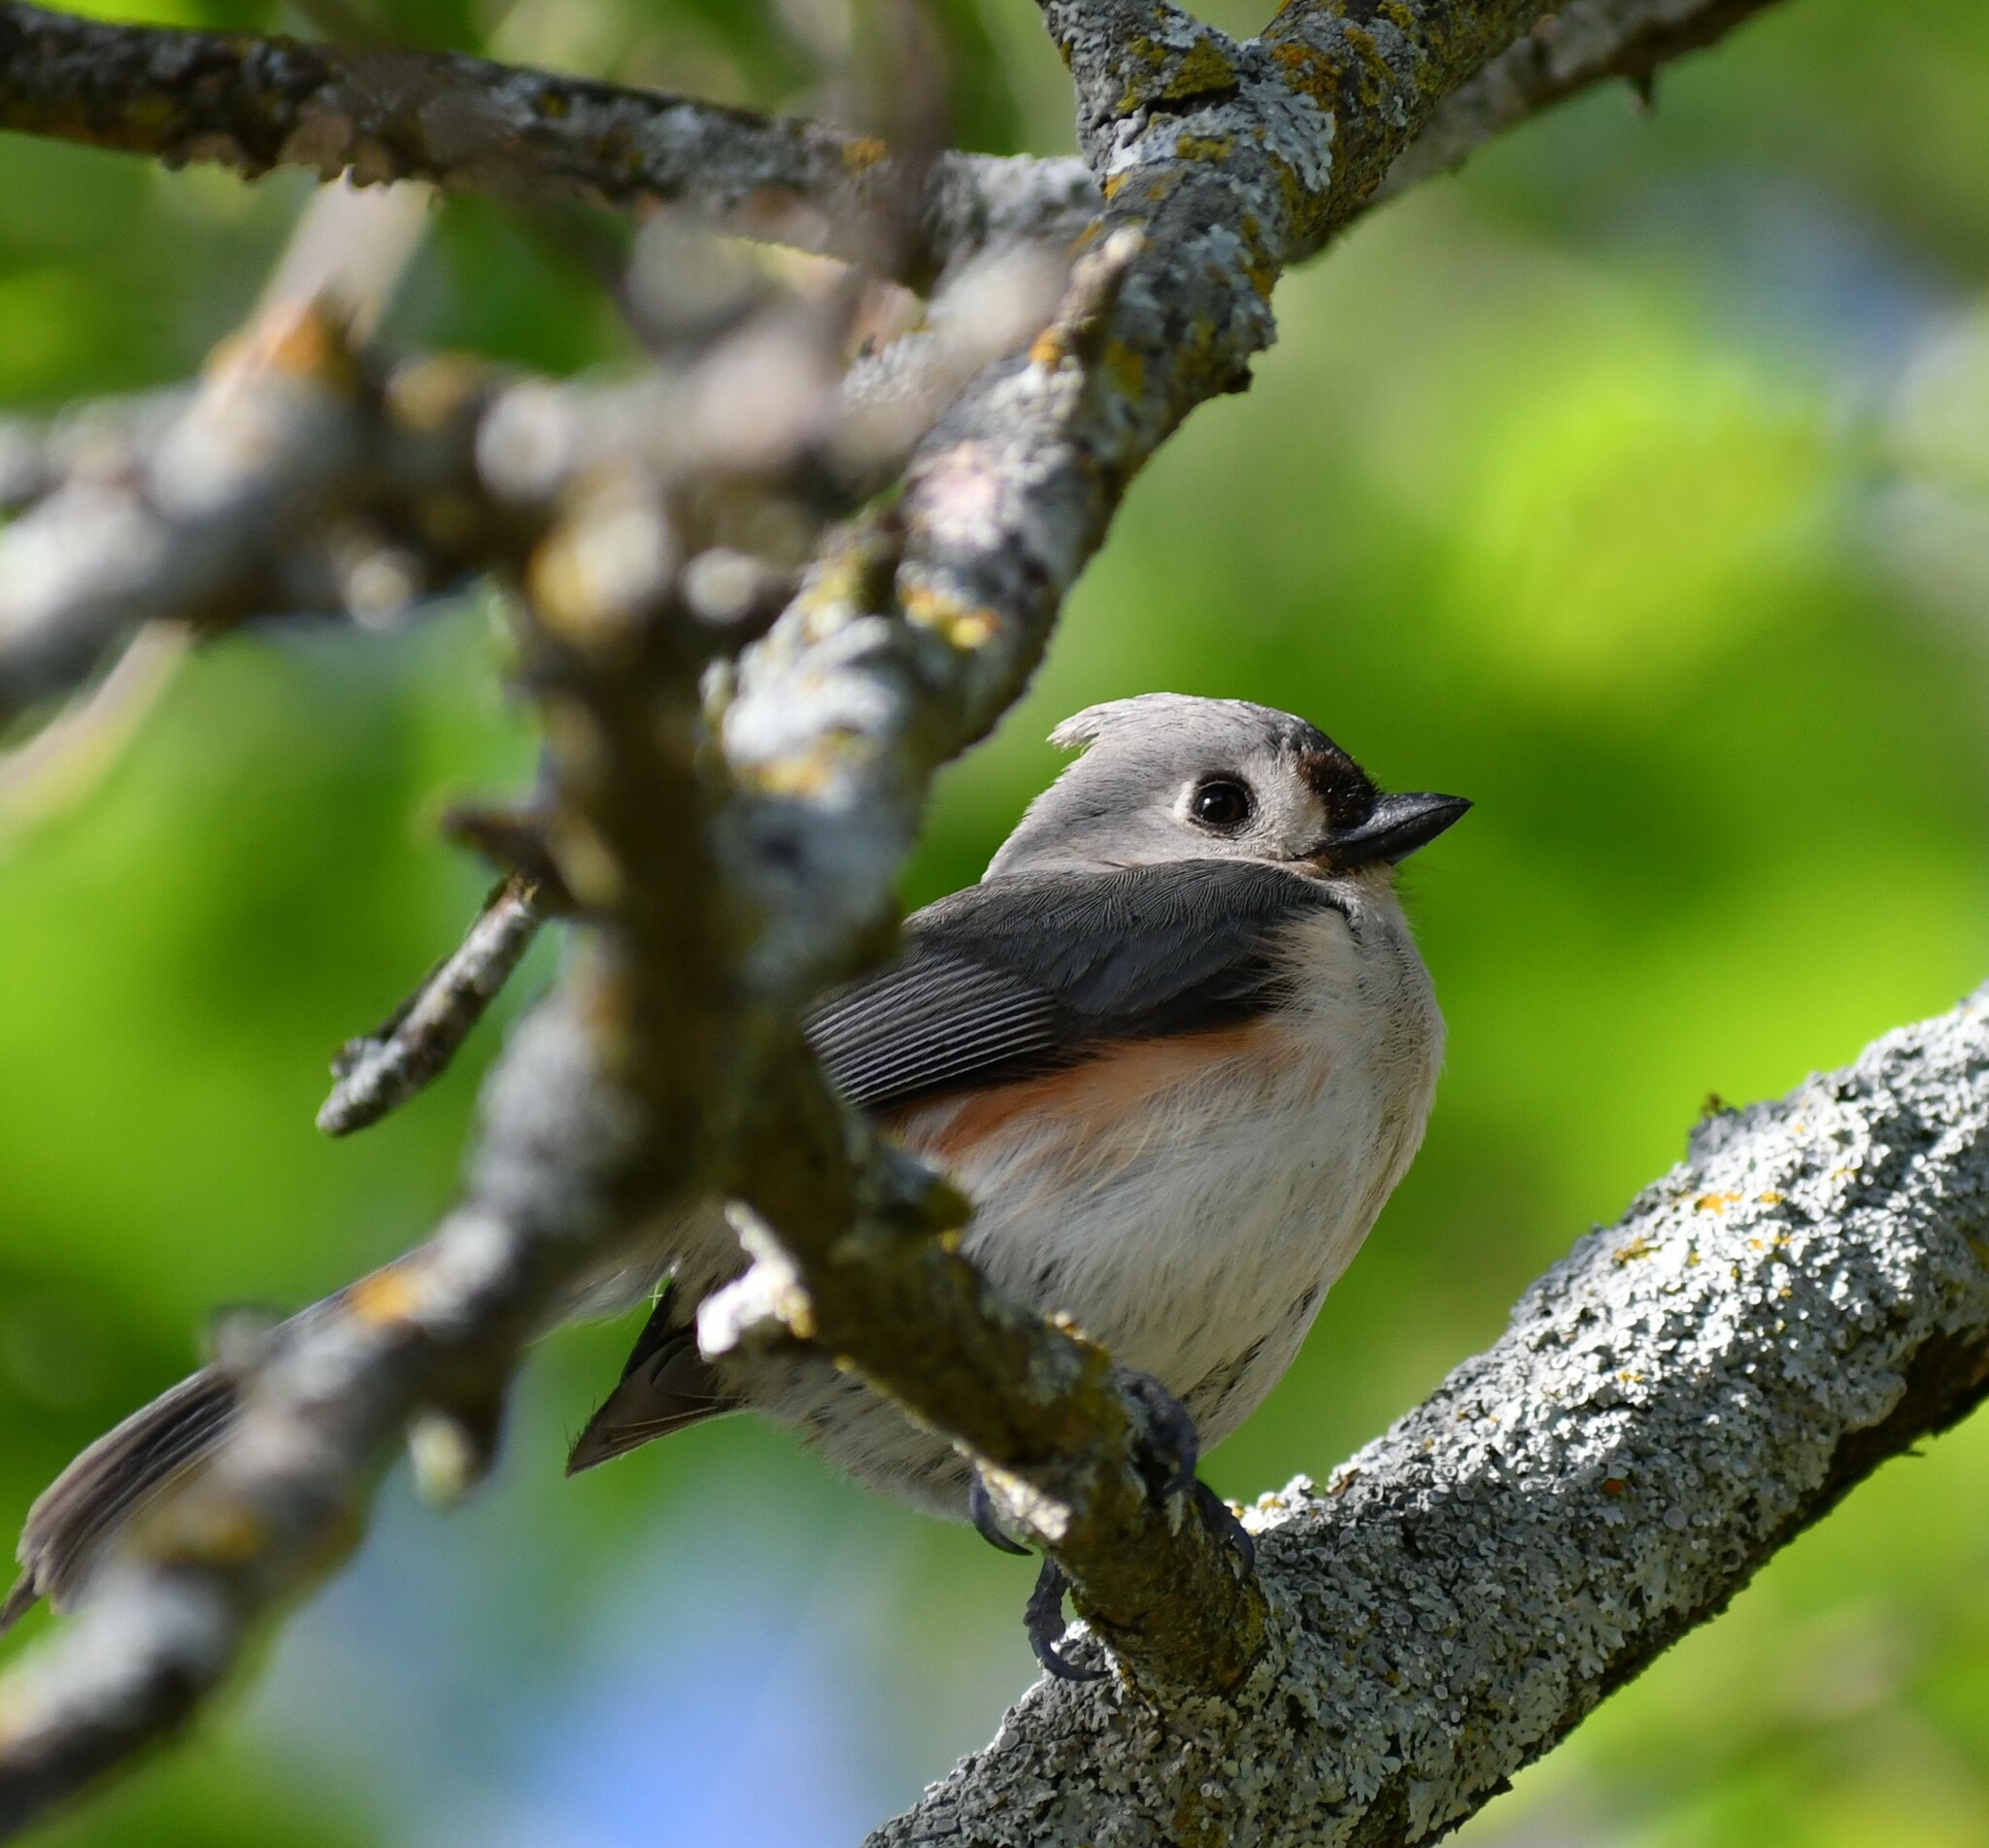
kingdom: Animalia
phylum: Chordata
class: Aves
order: Passeriformes
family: Paridae
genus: Baeolophus
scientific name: Baeolophus bicolor
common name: Tufted titmouse
